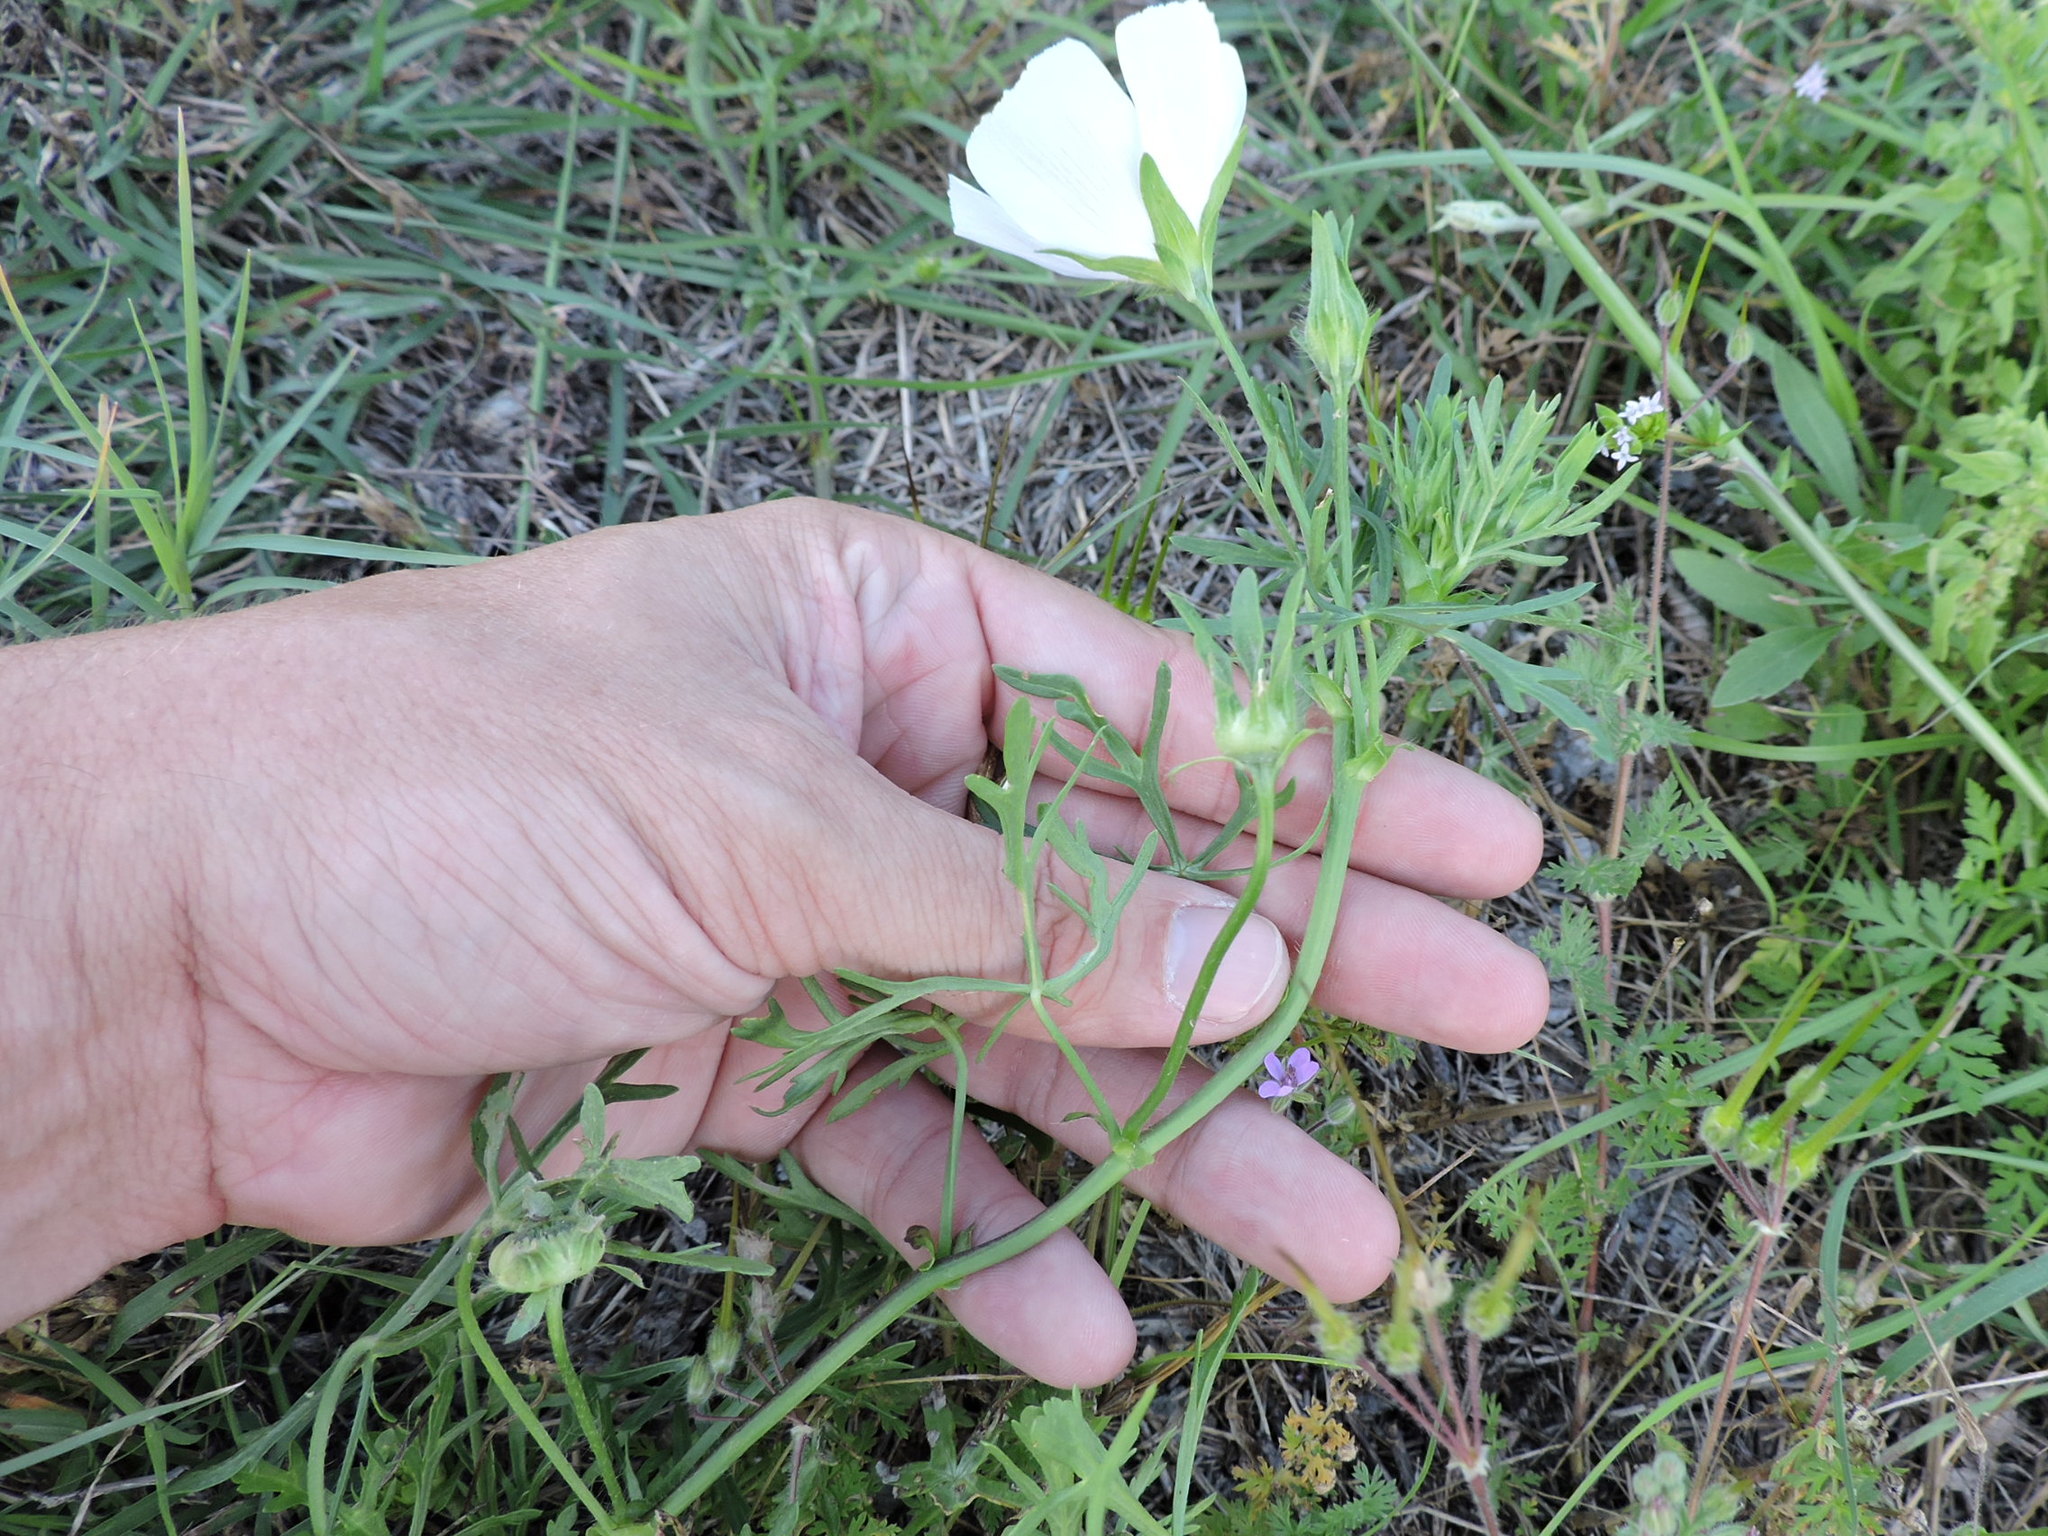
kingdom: Plantae
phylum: Tracheophyta
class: Magnoliopsida
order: Malvales
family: Malvaceae
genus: Callirhoe
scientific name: Callirhoe involucrata
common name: Purple poppy-mallow
